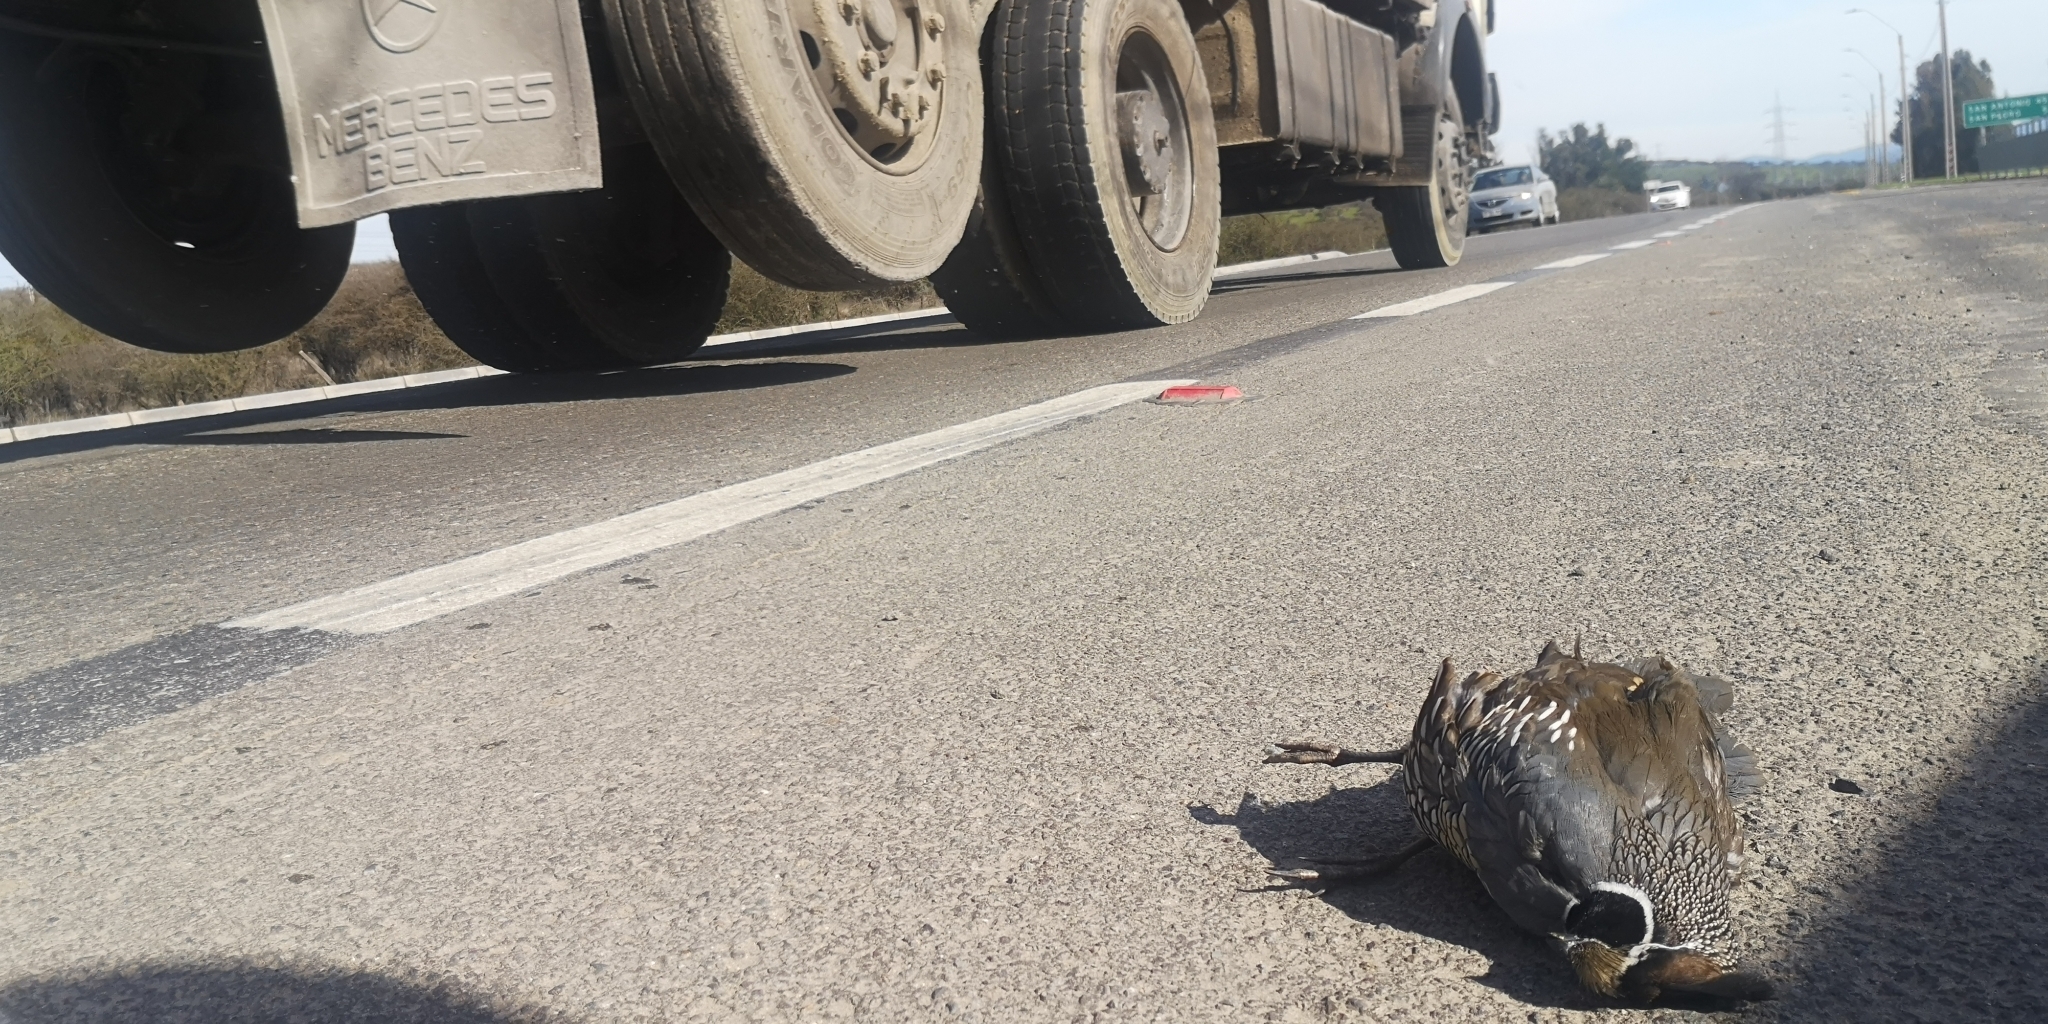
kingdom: Animalia
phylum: Chordata
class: Aves
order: Galliformes
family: Odontophoridae
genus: Callipepla
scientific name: Callipepla californica
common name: California quail
